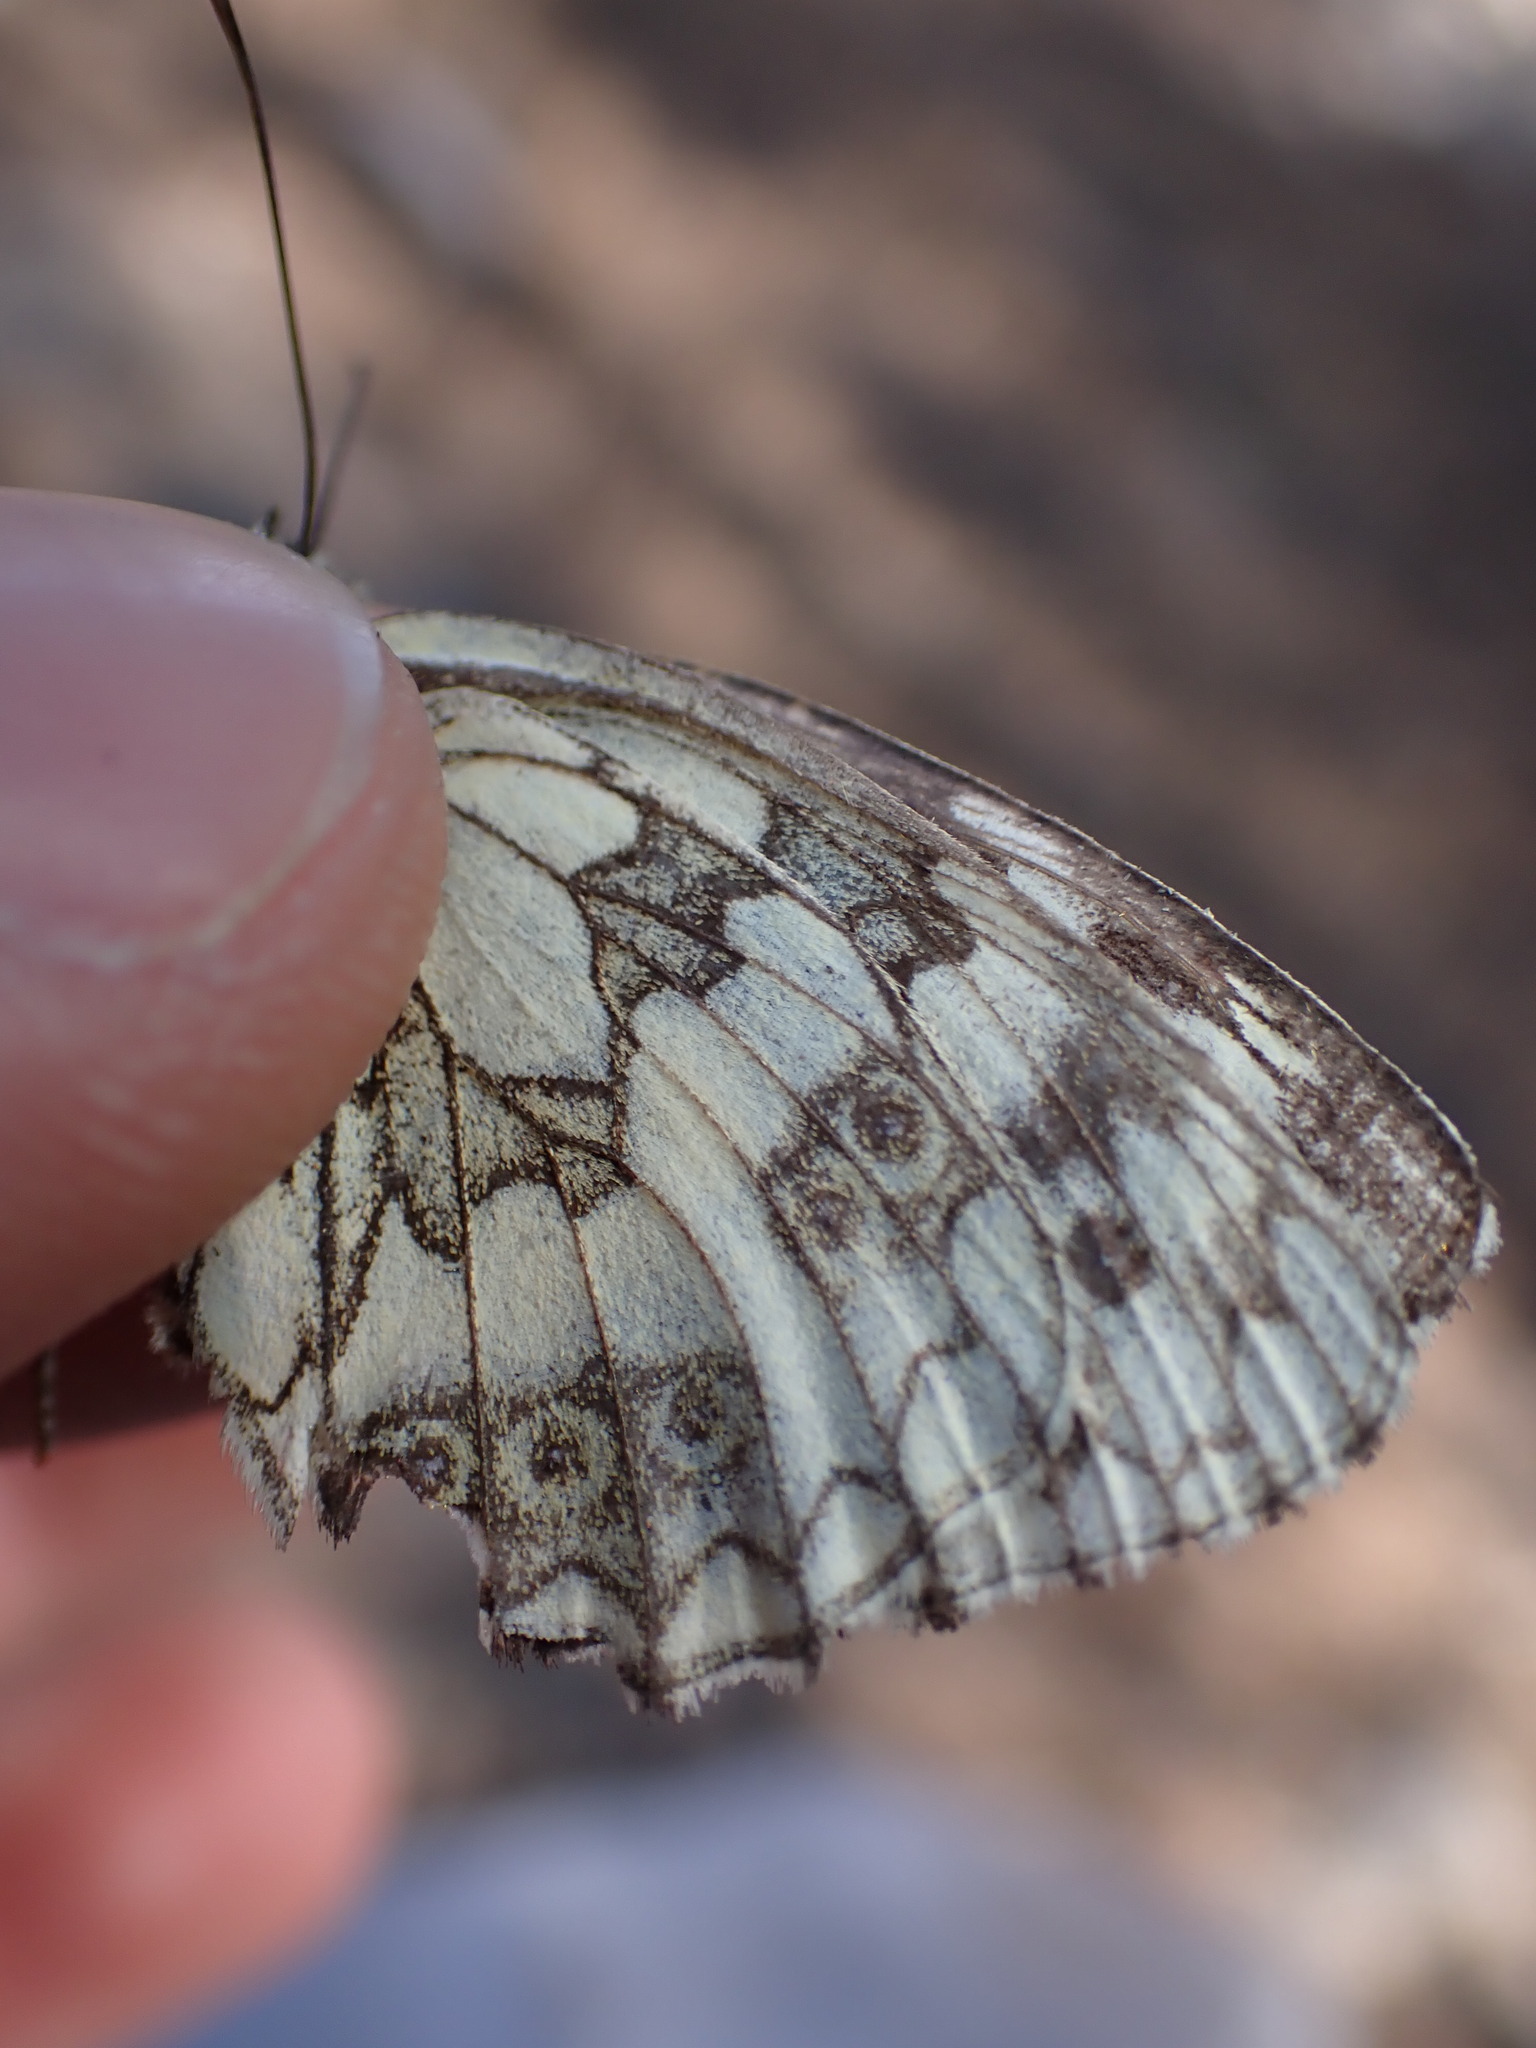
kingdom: Animalia
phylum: Arthropoda
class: Insecta
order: Lepidoptera
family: Nymphalidae
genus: Melanargia
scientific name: Melanargia galathea
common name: Marbled white
